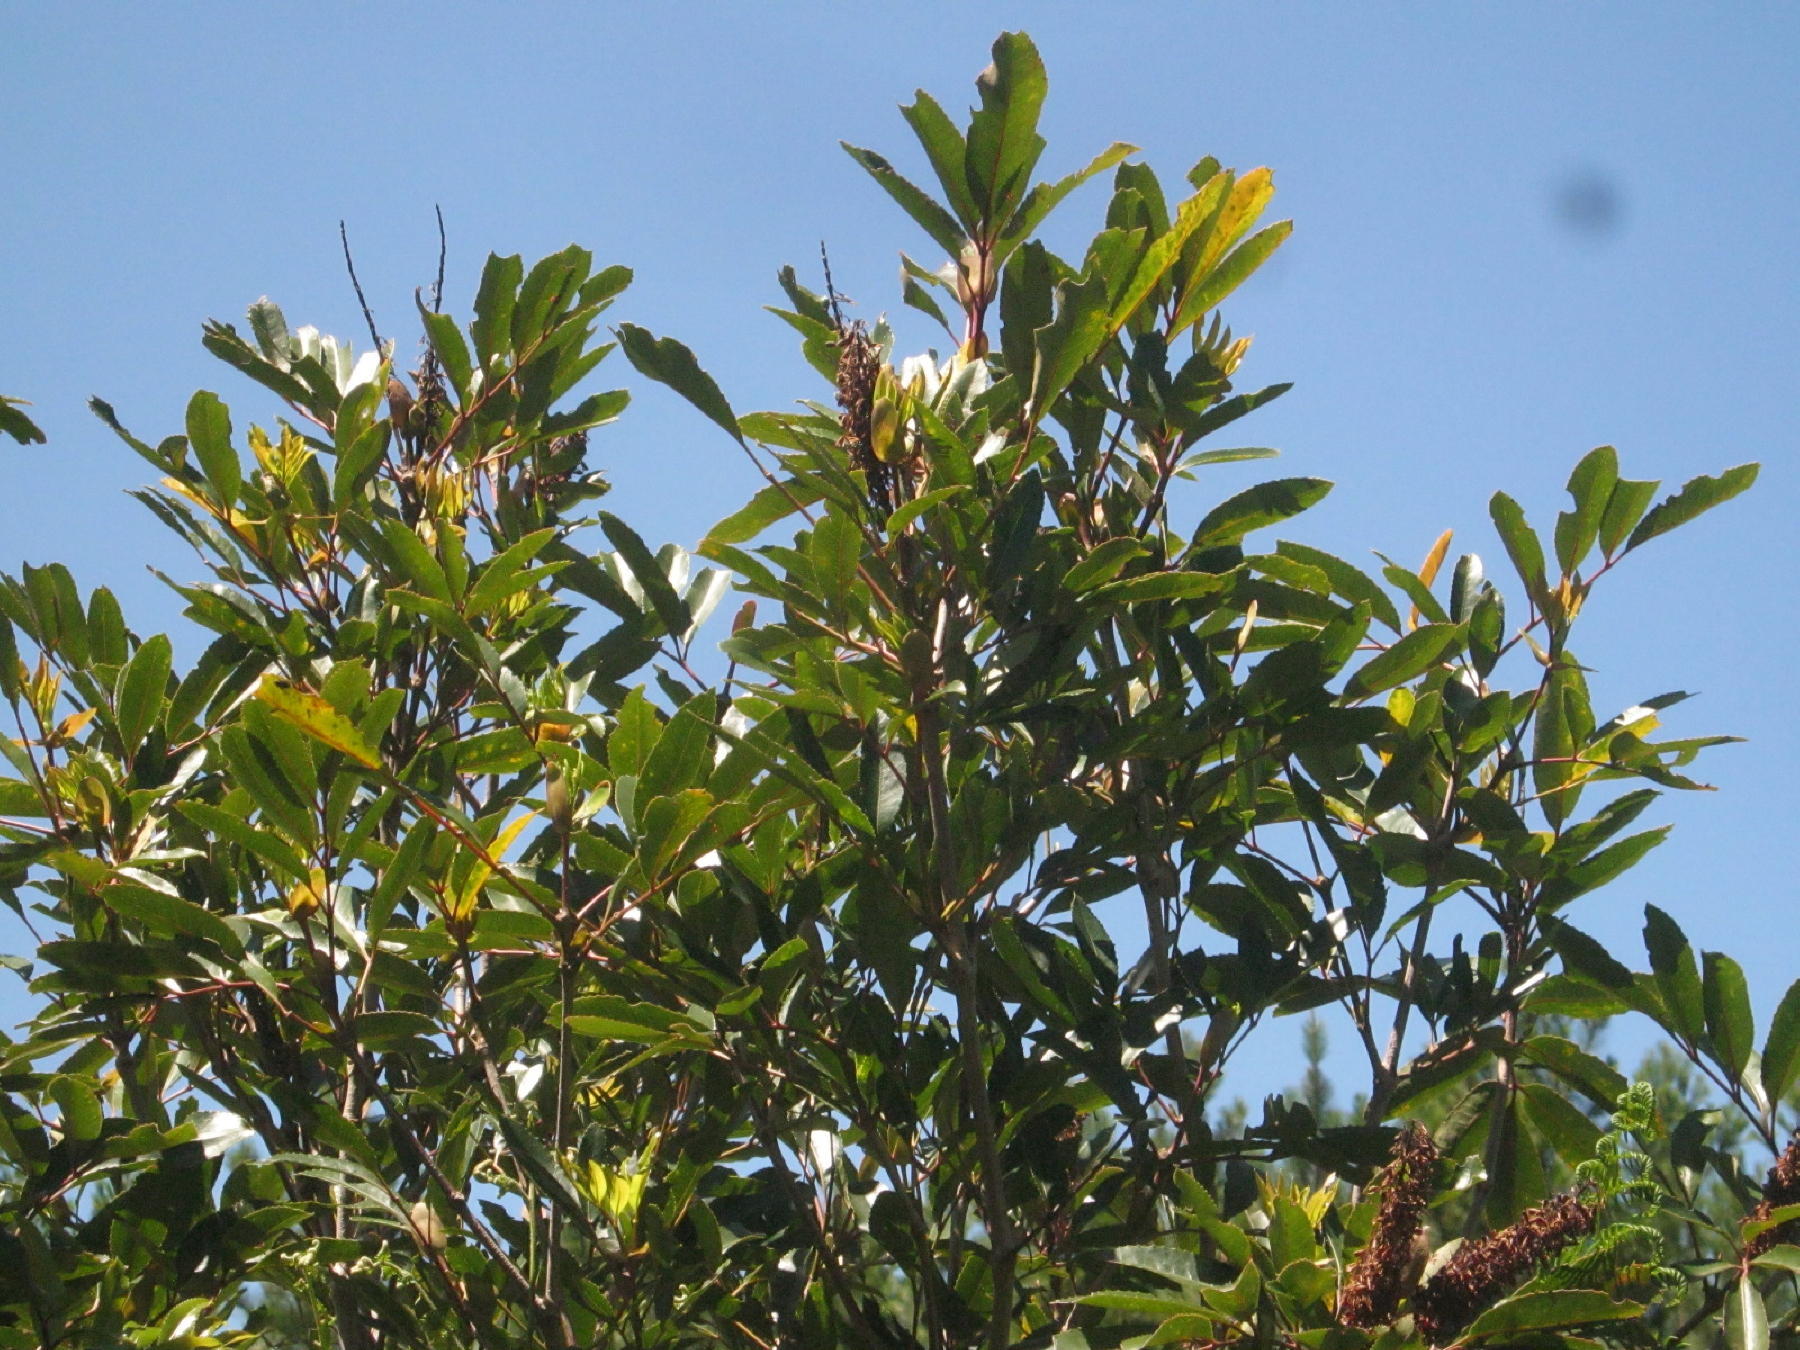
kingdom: Plantae
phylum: Tracheophyta
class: Magnoliopsida
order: Oxalidales
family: Cunoniaceae
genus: Cunonia
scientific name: Cunonia capensis
